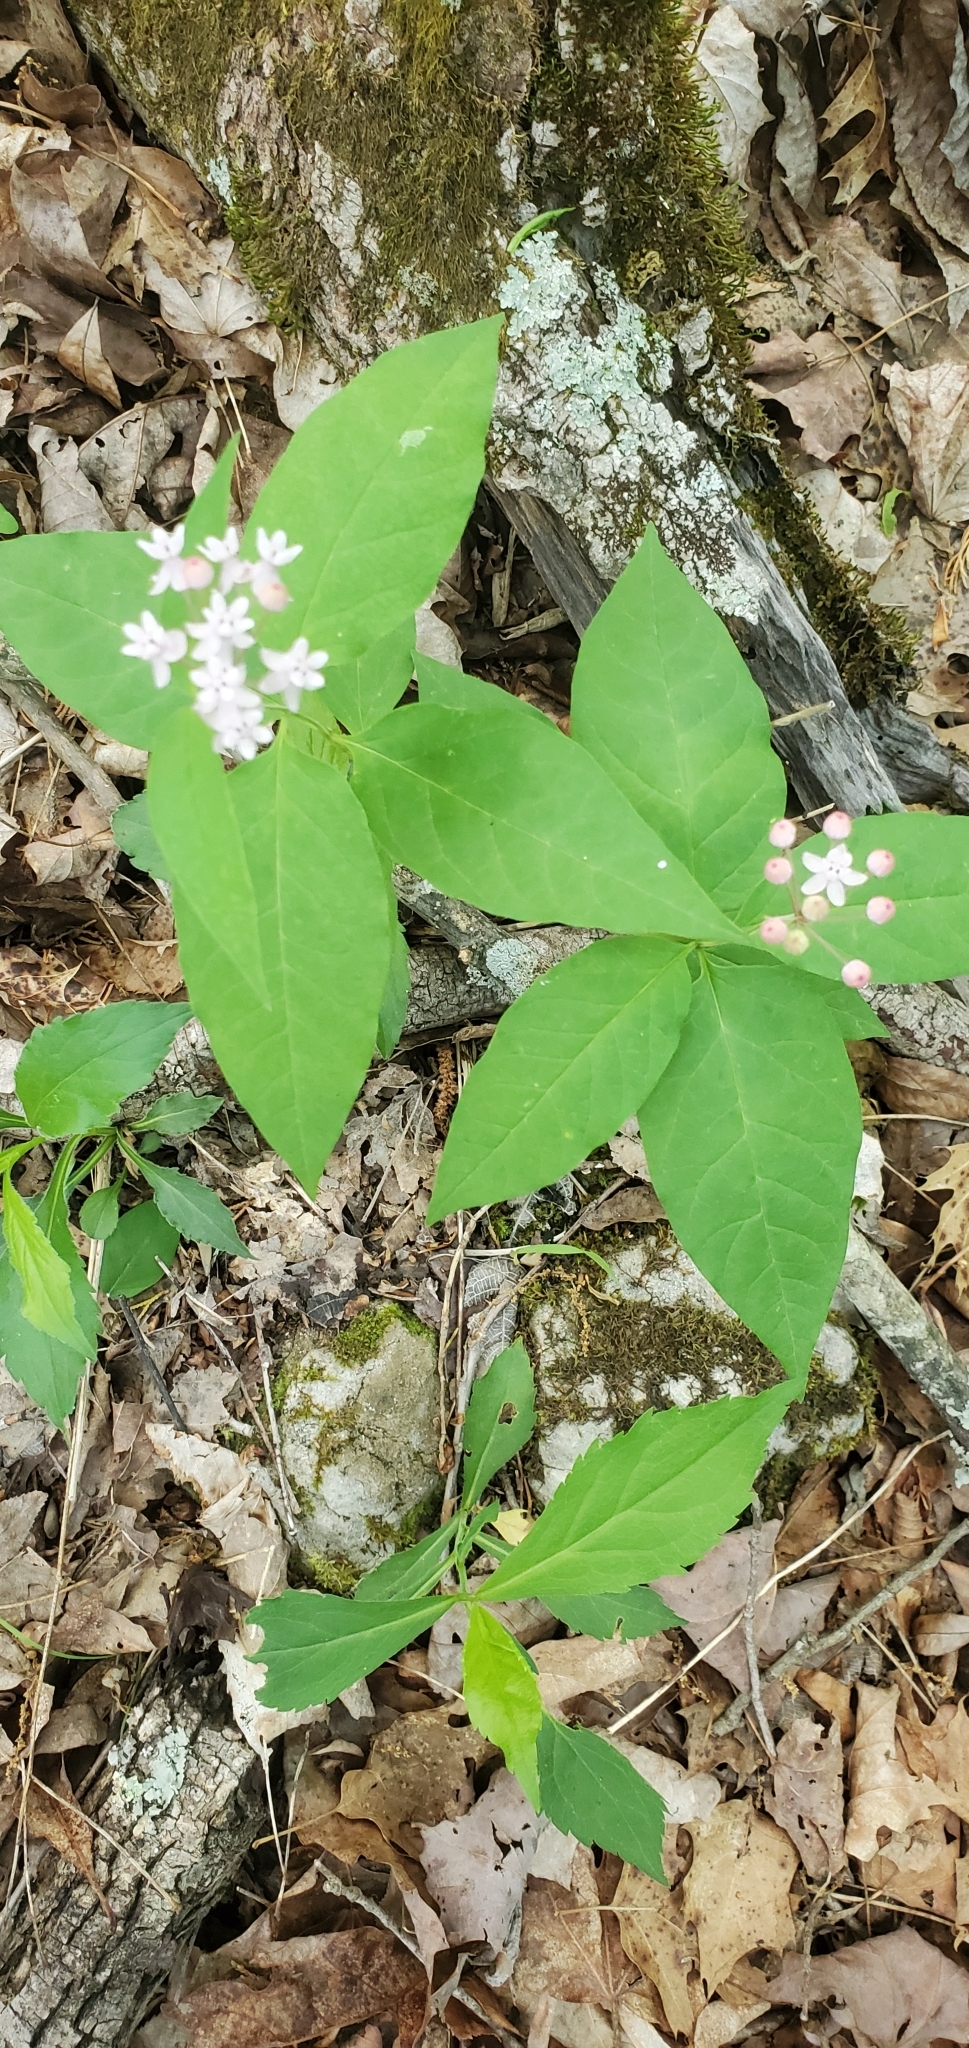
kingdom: Plantae
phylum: Tracheophyta
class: Magnoliopsida
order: Gentianales
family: Apocynaceae
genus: Asclepias
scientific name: Asclepias quadrifolia
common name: Whorled milkweed
